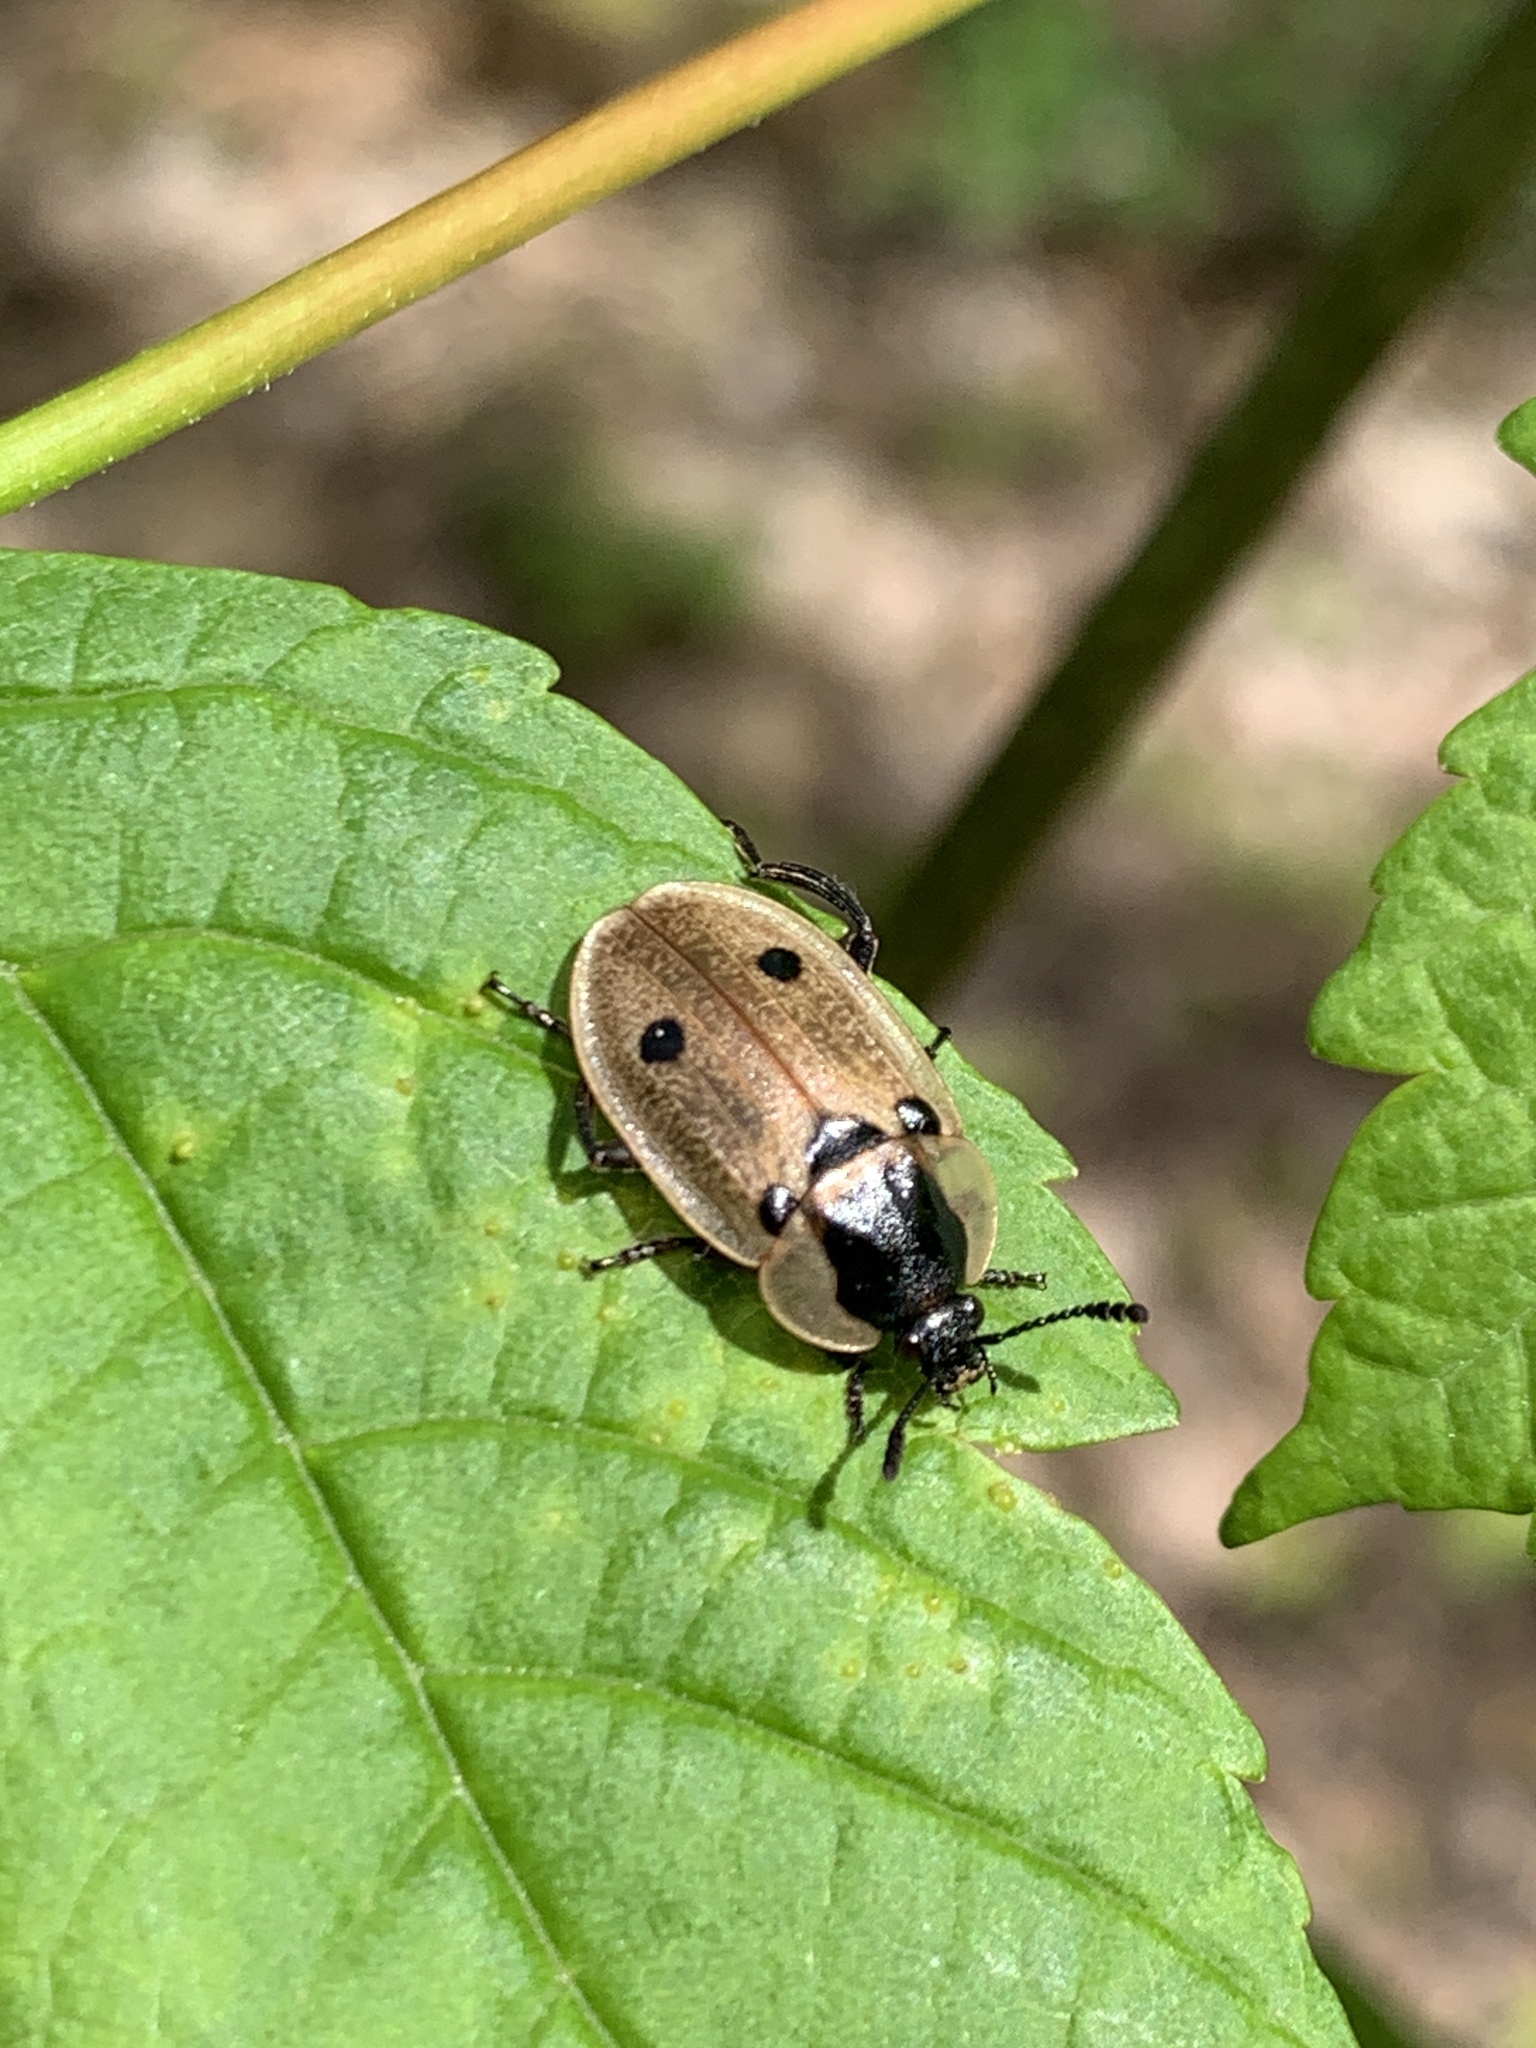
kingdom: Animalia
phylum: Arthropoda
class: Insecta
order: Coleoptera
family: Staphylinidae
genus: Dendroxena
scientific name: Dendroxena quadrimaculata
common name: Carrion beetle
